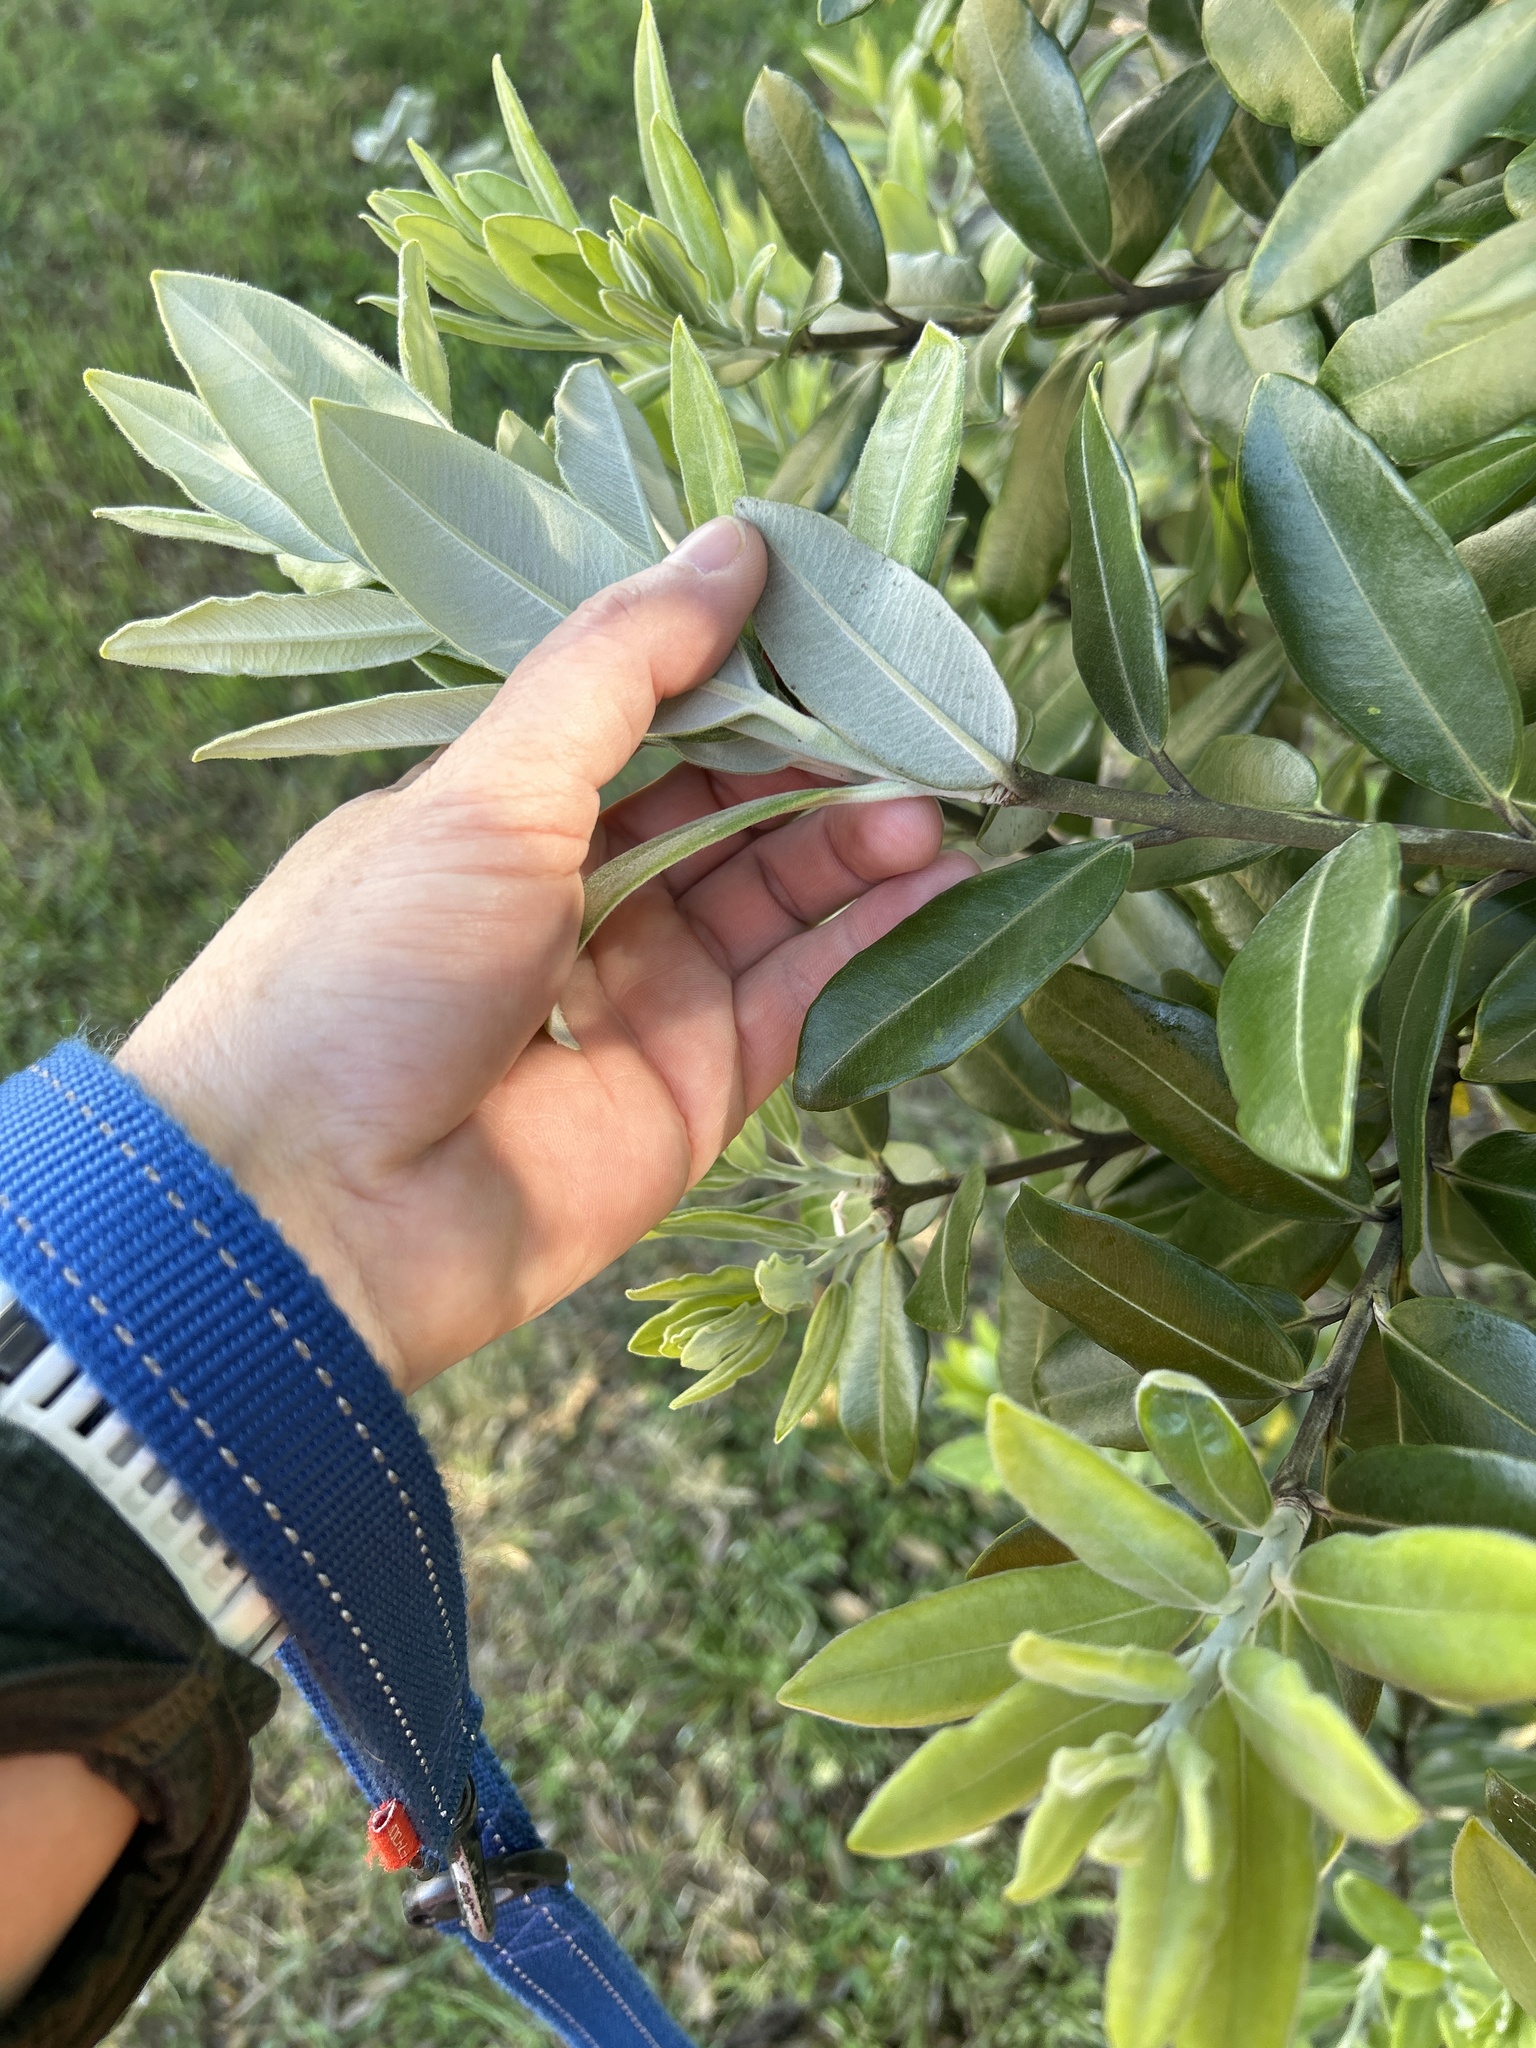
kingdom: Plantae
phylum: Tracheophyta
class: Magnoliopsida
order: Myrtales
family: Myrtaceae
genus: Metrosideros
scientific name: Metrosideros excelsa
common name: New zealand christmastree
